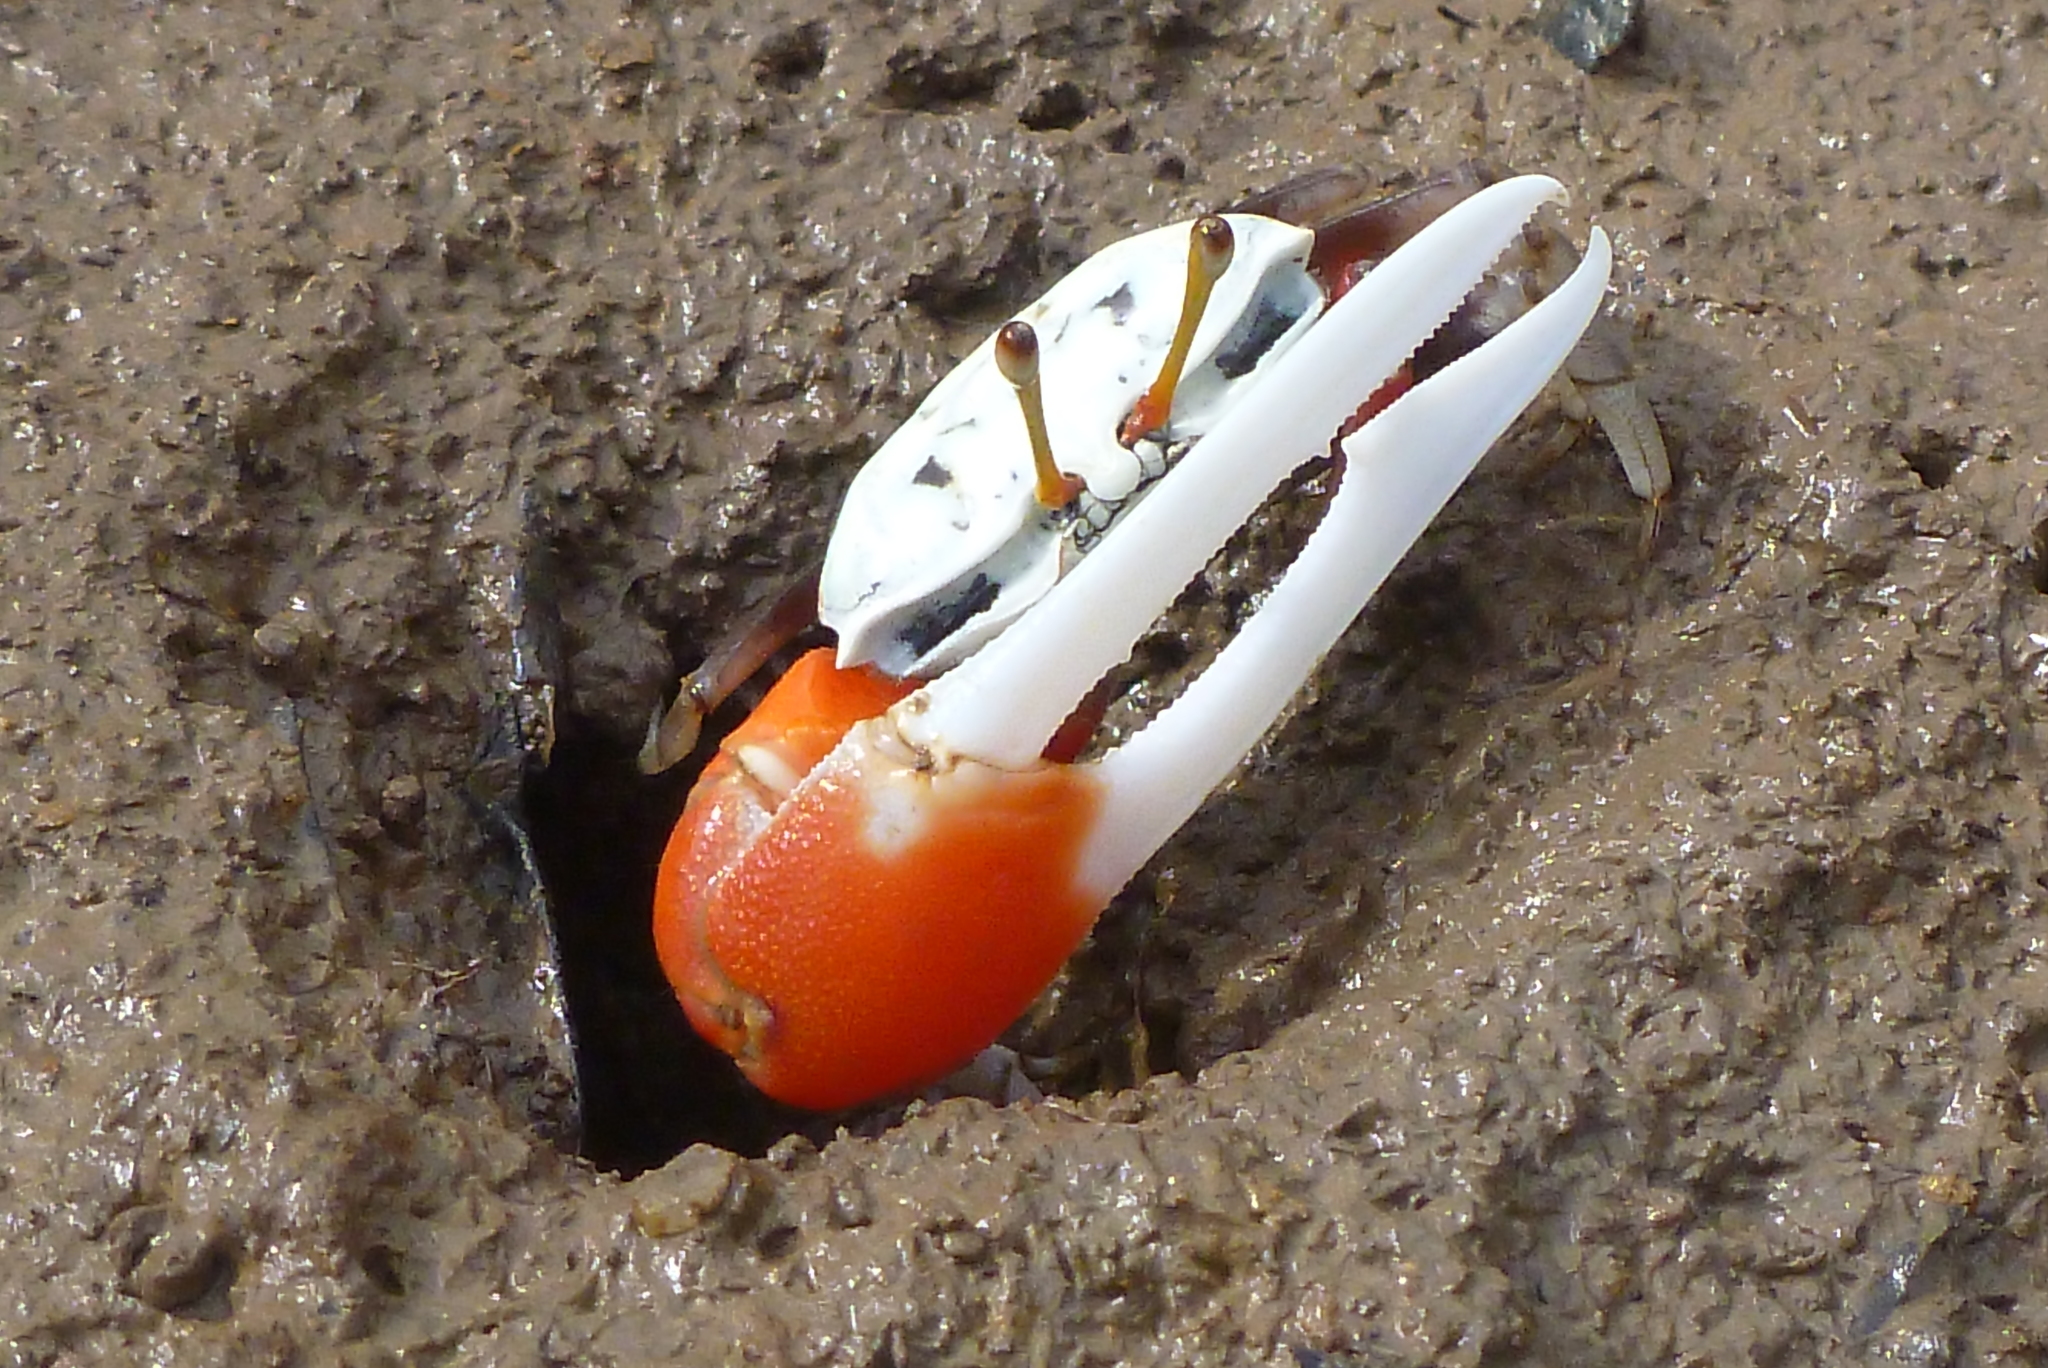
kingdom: Animalia
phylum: Arthropoda
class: Malacostraca
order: Decapoda
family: Ocypodidae
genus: Tubuca
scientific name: Tubuca signata
